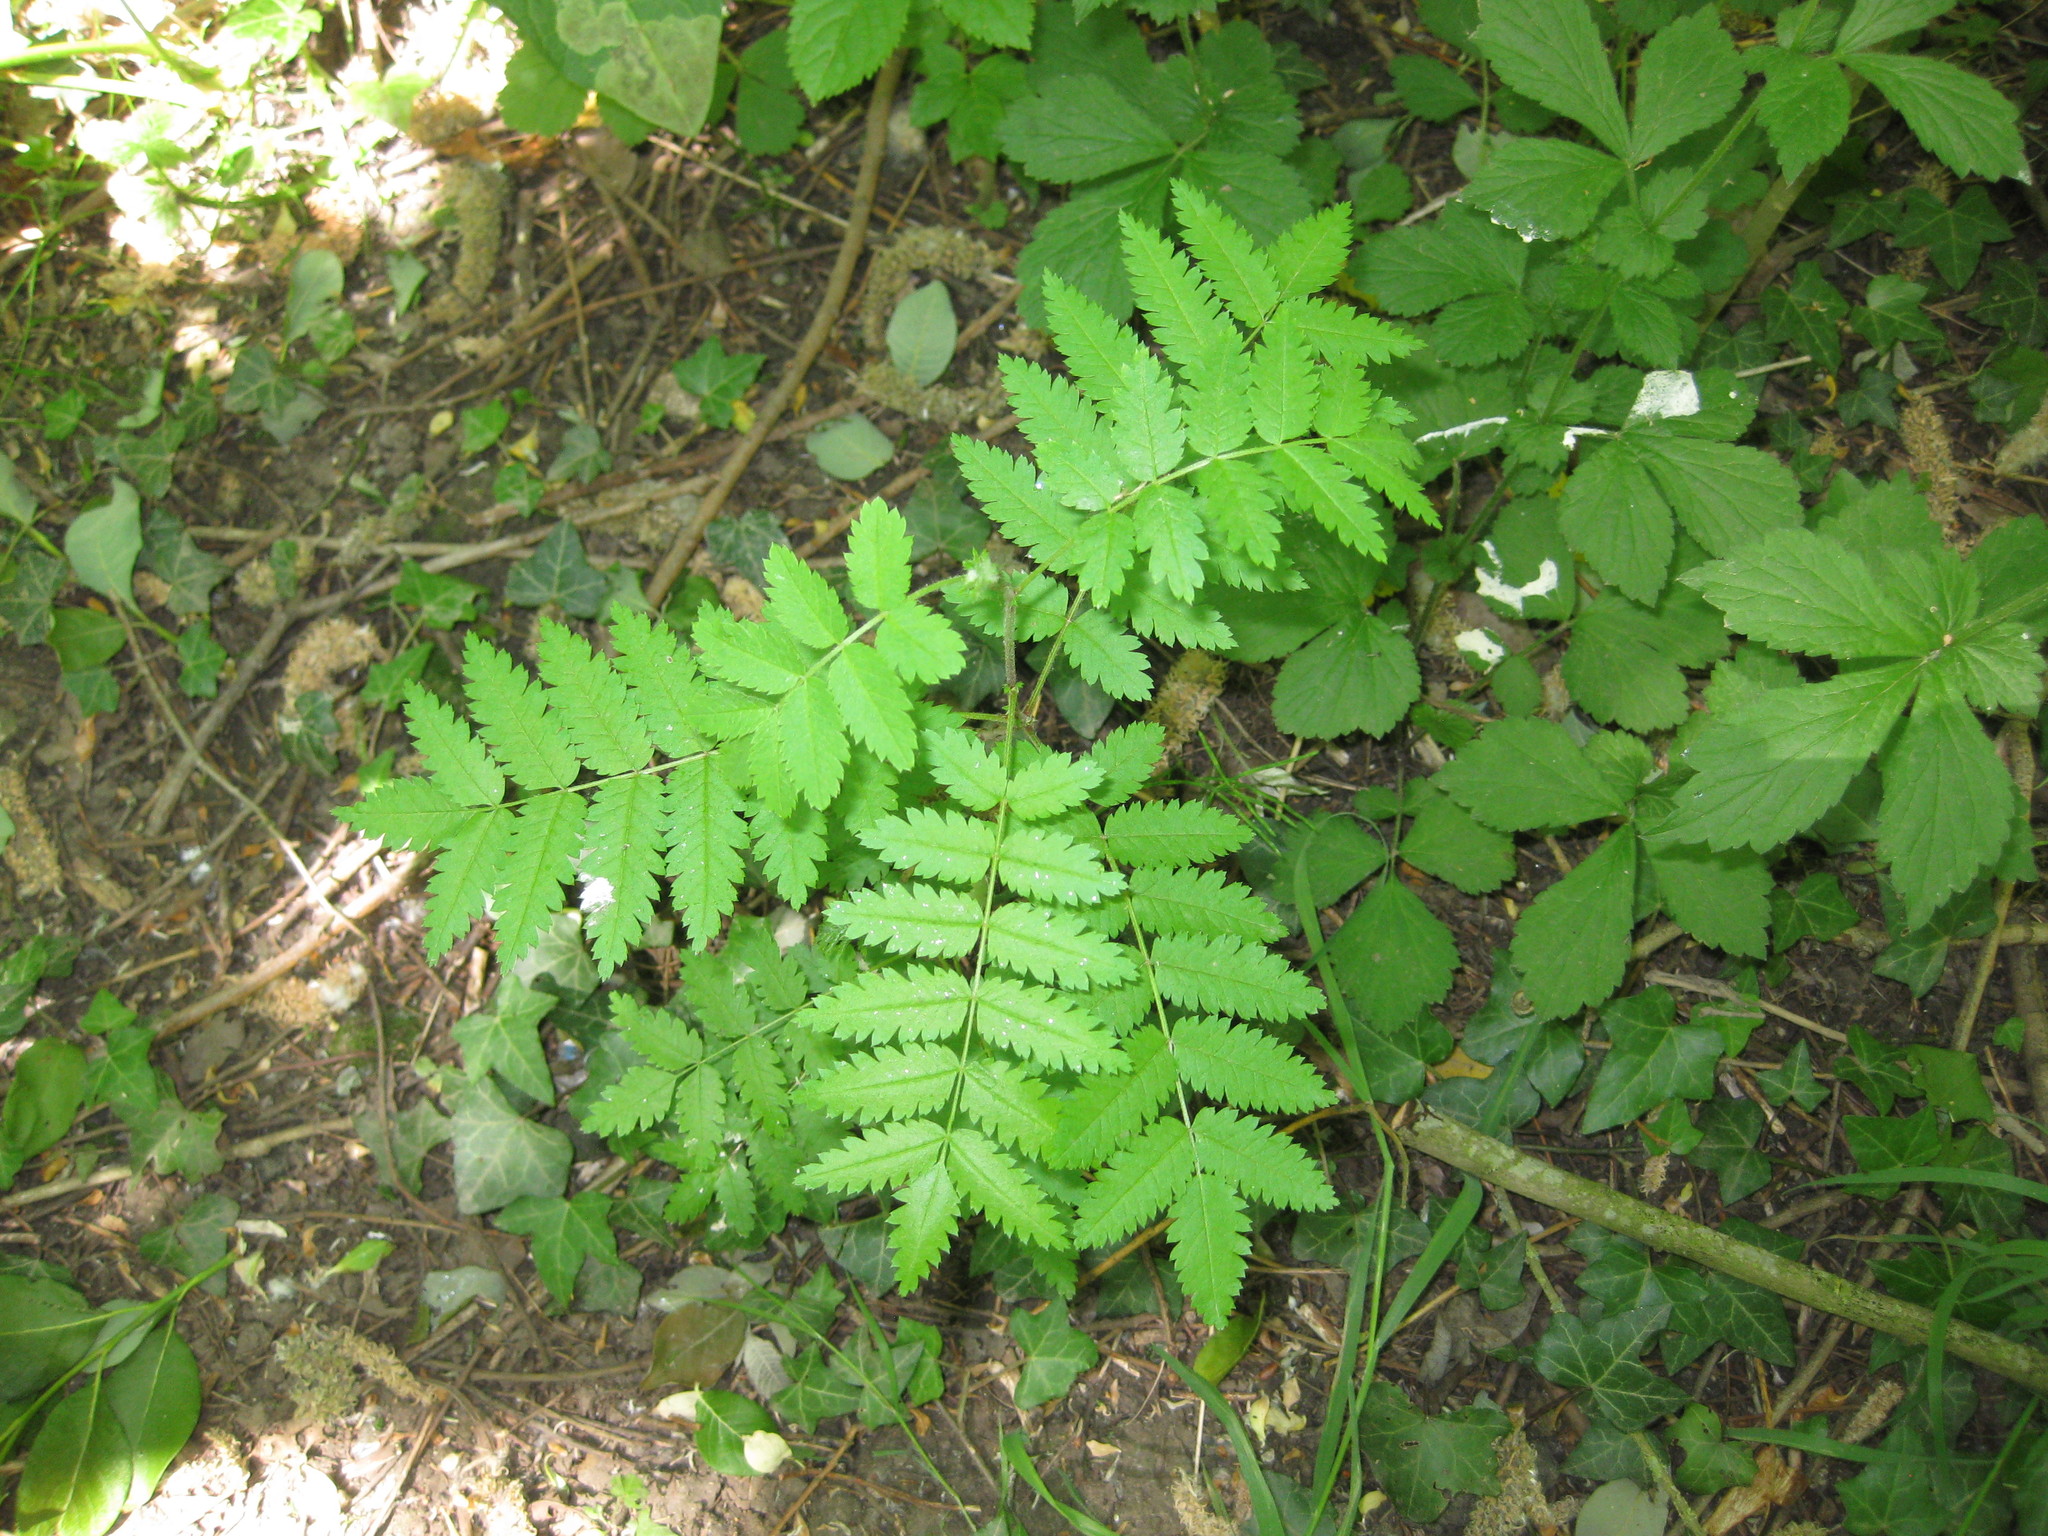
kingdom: Plantae
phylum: Tracheophyta
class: Magnoliopsida
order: Rosales
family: Rosaceae
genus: Sorbus
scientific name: Sorbus aucuparia
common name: Rowan
